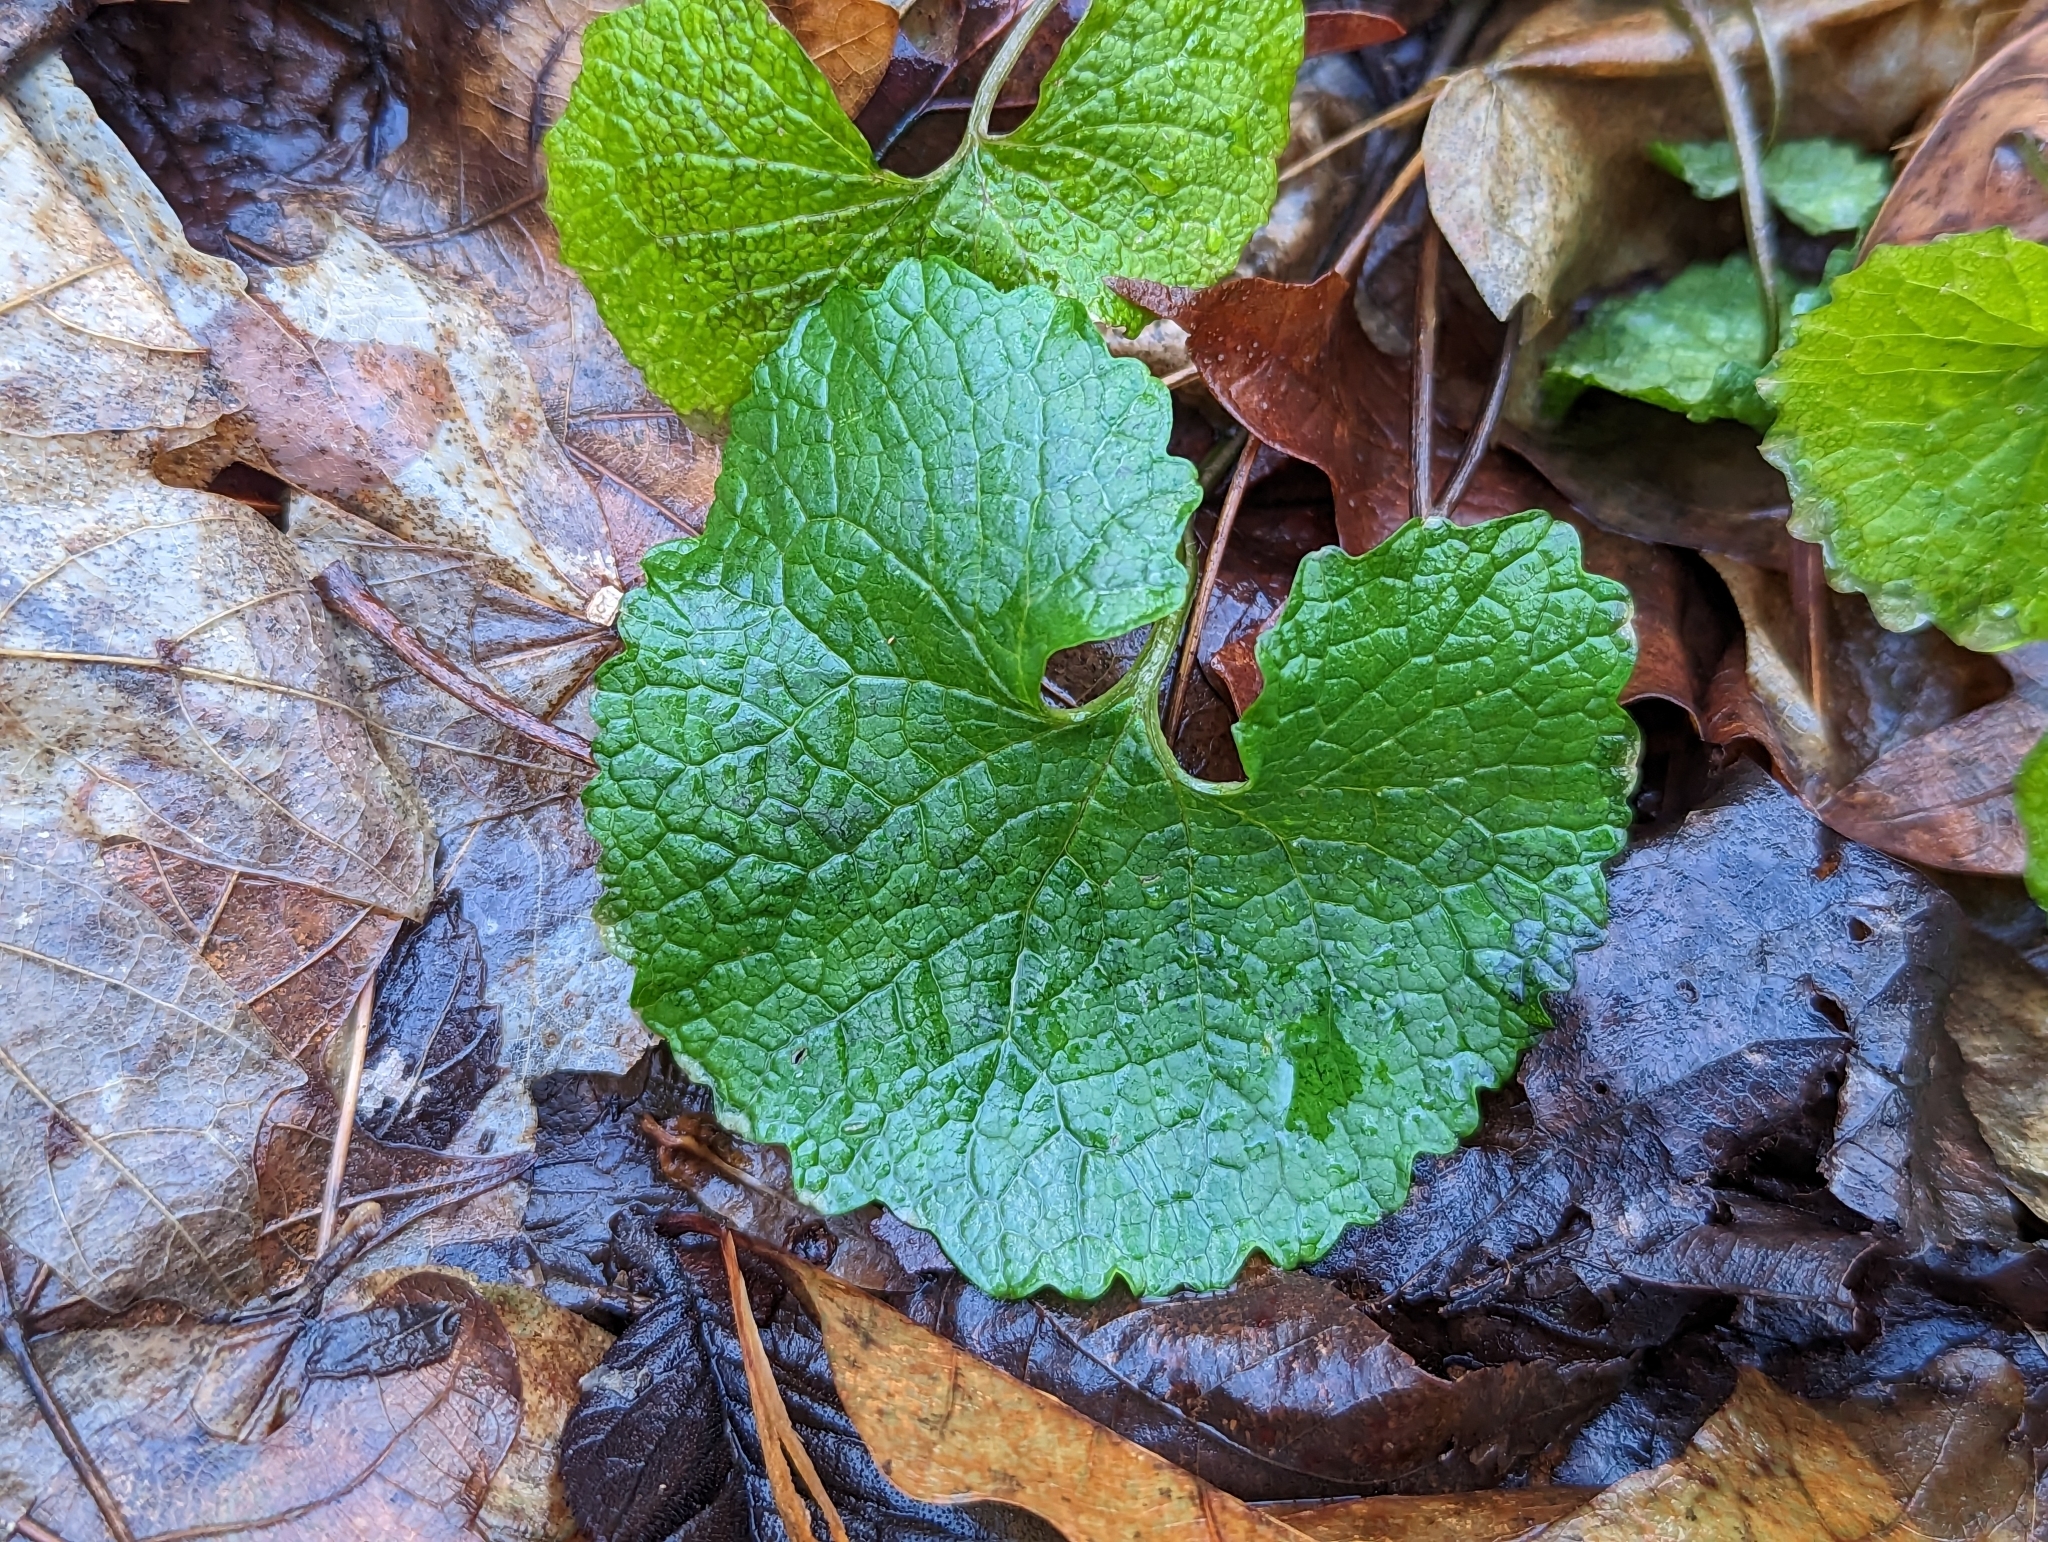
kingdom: Plantae
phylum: Tracheophyta
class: Magnoliopsida
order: Brassicales
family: Brassicaceae
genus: Alliaria
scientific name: Alliaria petiolata
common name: Garlic mustard
